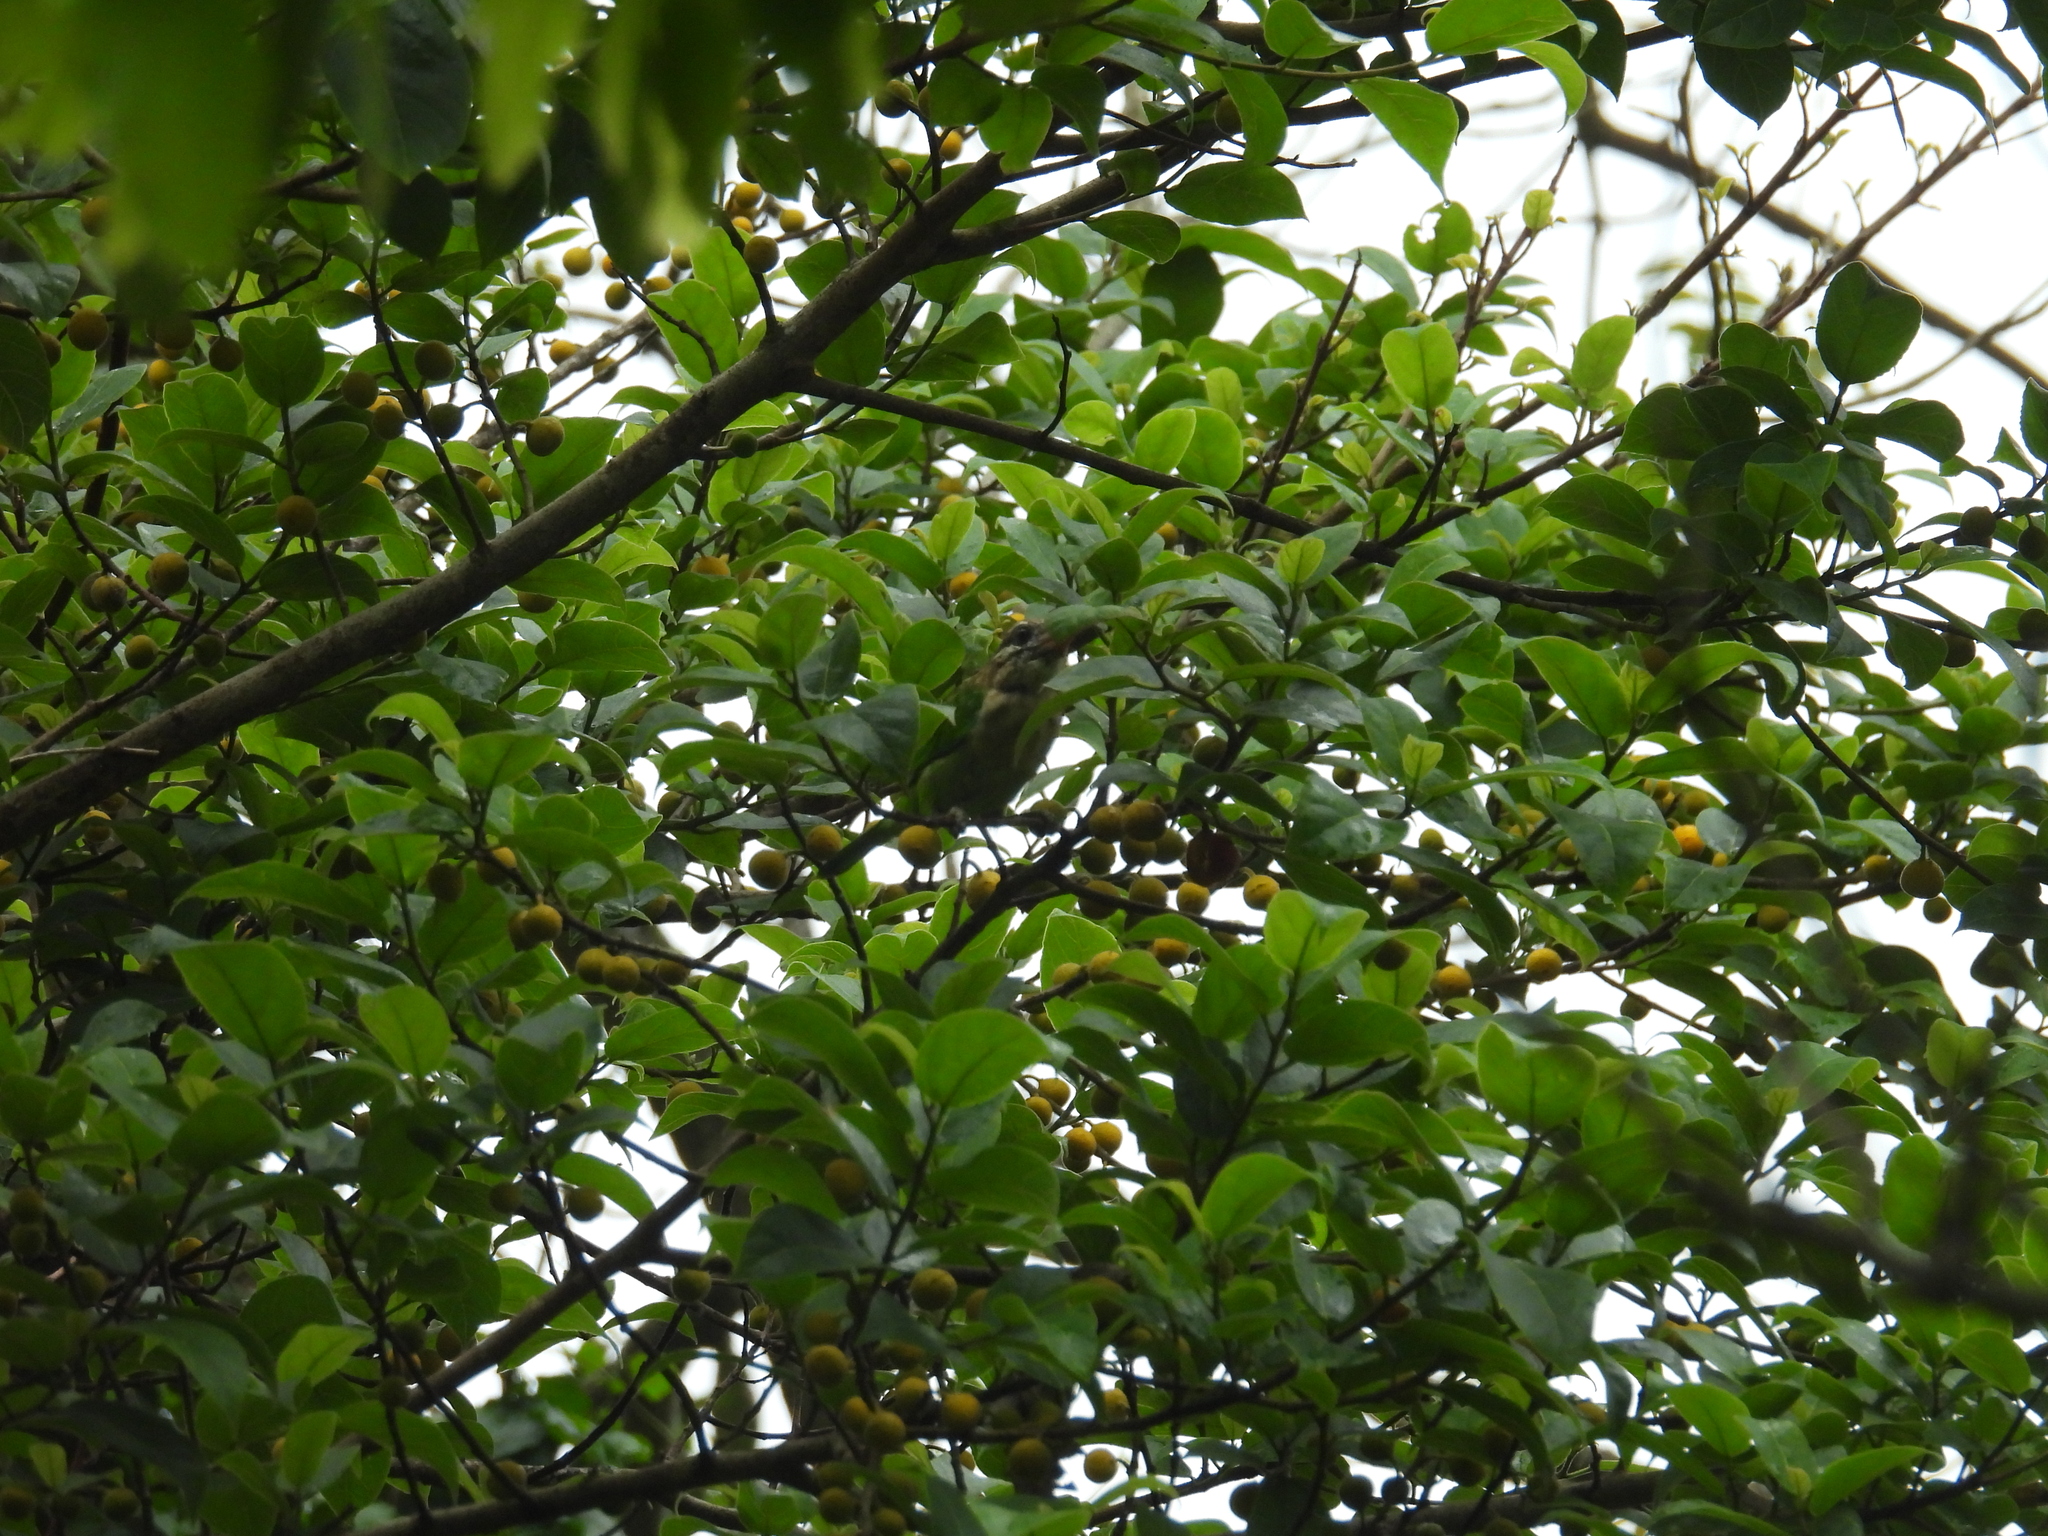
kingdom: Animalia
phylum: Chordata
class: Aves
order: Piciformes
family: Megalaimidae
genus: Psilopogon
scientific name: Psilopogon viridis
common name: White-cheeked barbet
